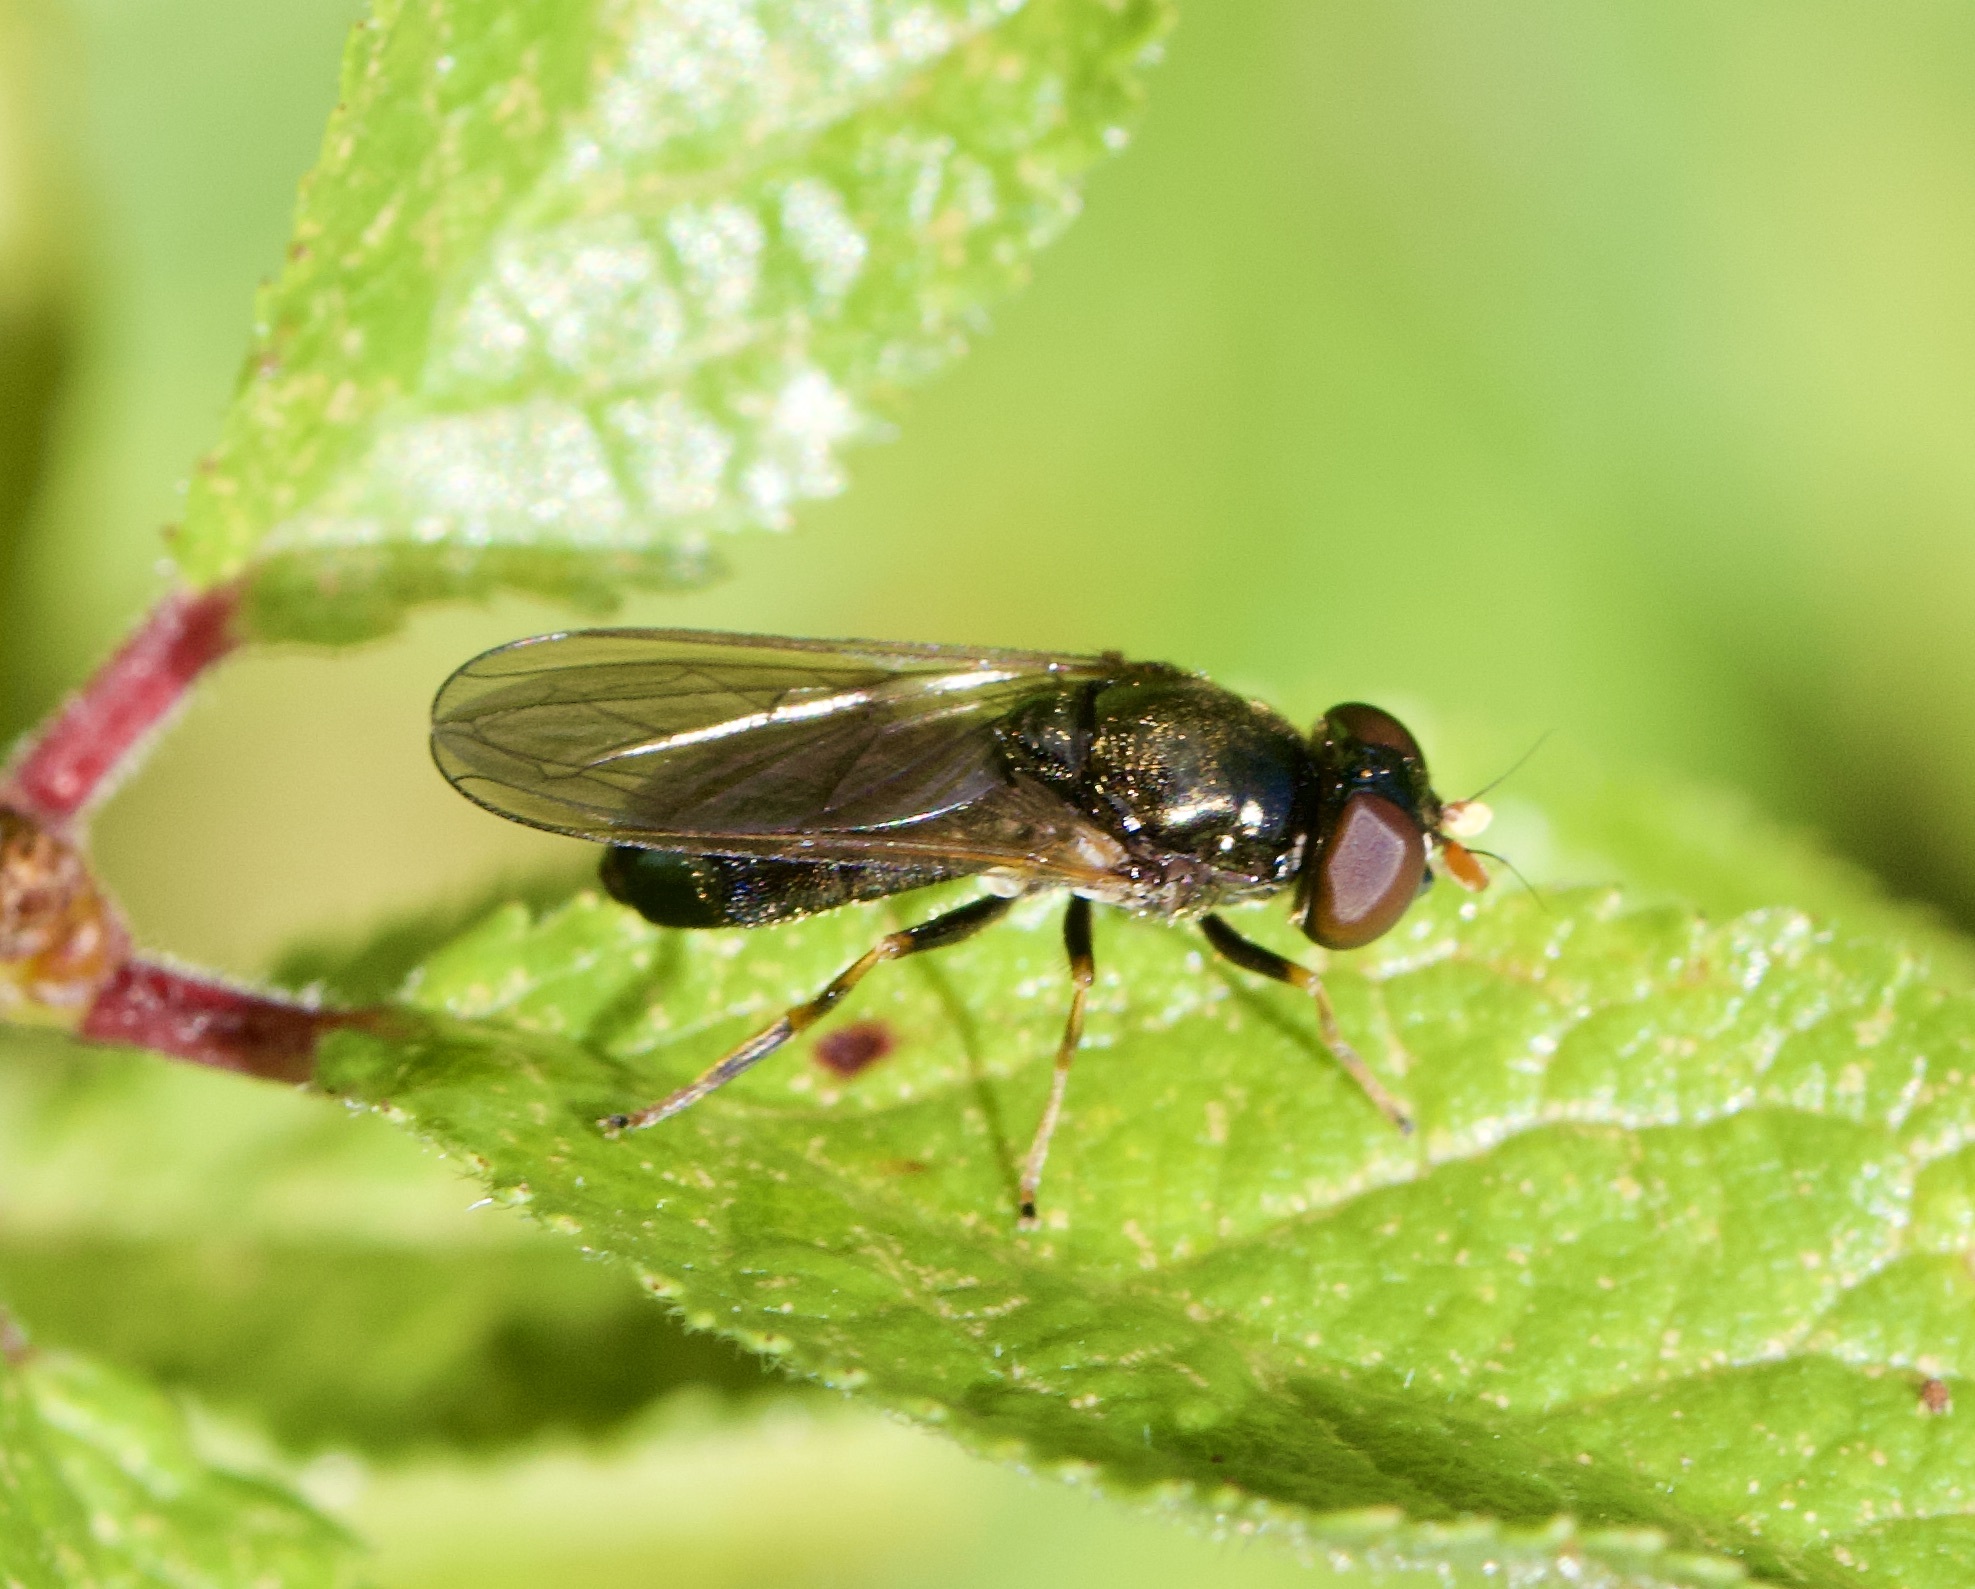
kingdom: Animalia
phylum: Arthropoda
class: Insecta
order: Diptera
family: Syrphidae
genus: Cheilosia
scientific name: Cheilosia pagana
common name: Hover fly
